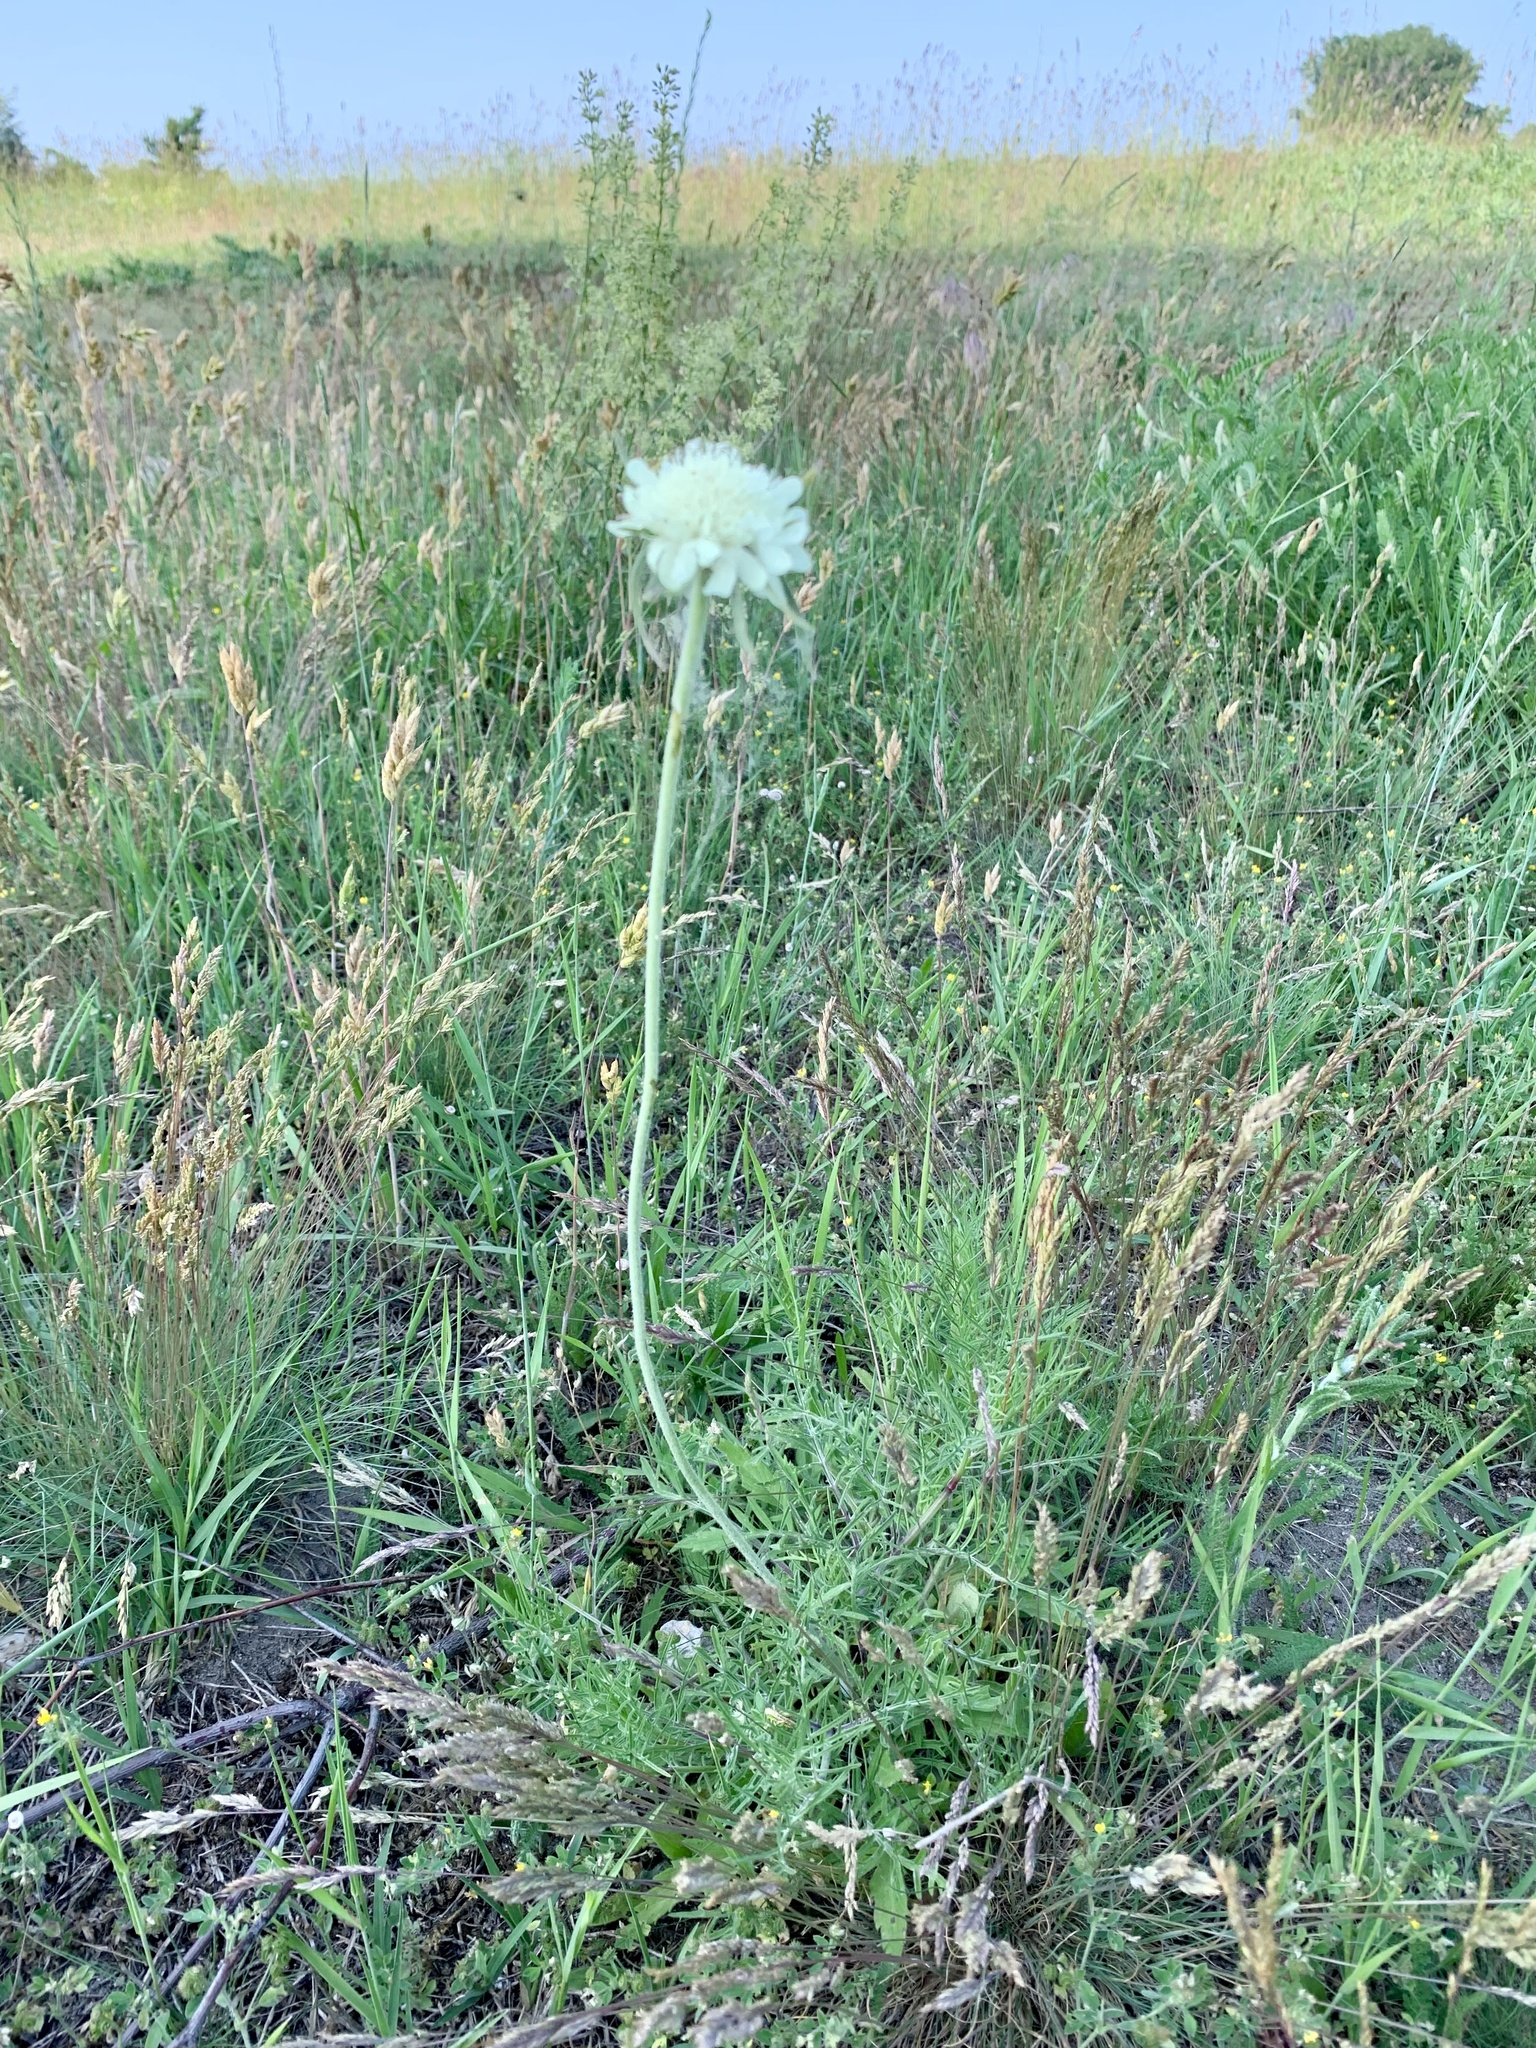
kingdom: Plantae
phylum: Tracheophyta
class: Magnoliopsida
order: Dipsacales
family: Caprifoliaceae
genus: Scabiosa
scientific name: Scabiosa ochroleuca
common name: Cream pincushions
